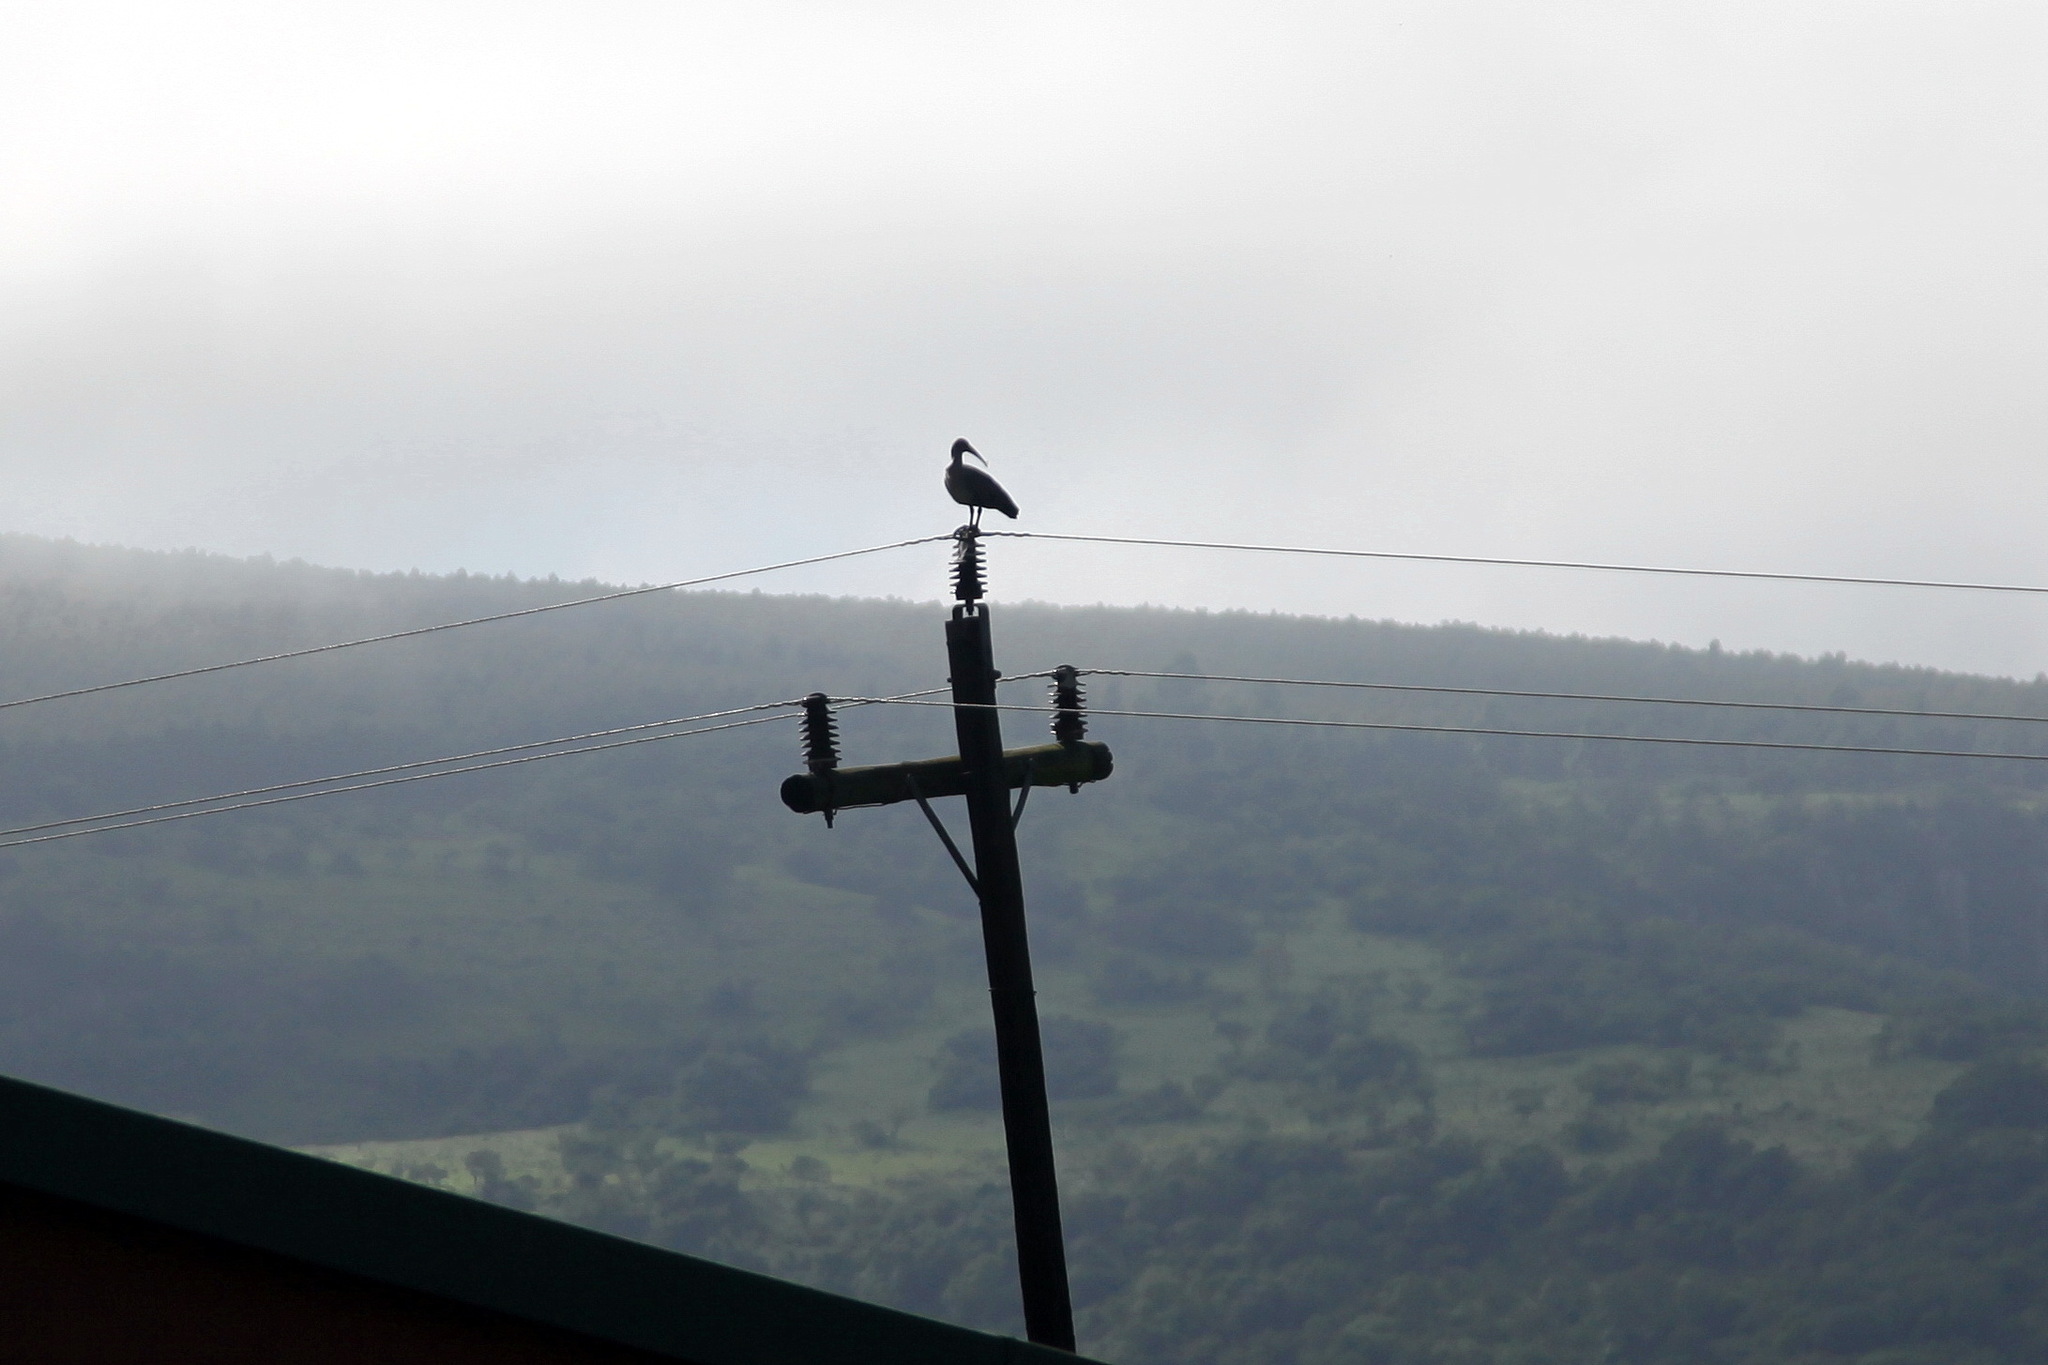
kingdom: Animalia
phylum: Chordata
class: Aves
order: Pelecaniformes
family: Threskiornithidae
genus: Bostrychia
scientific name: Bostrychia hagedash
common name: Hadada ibis
